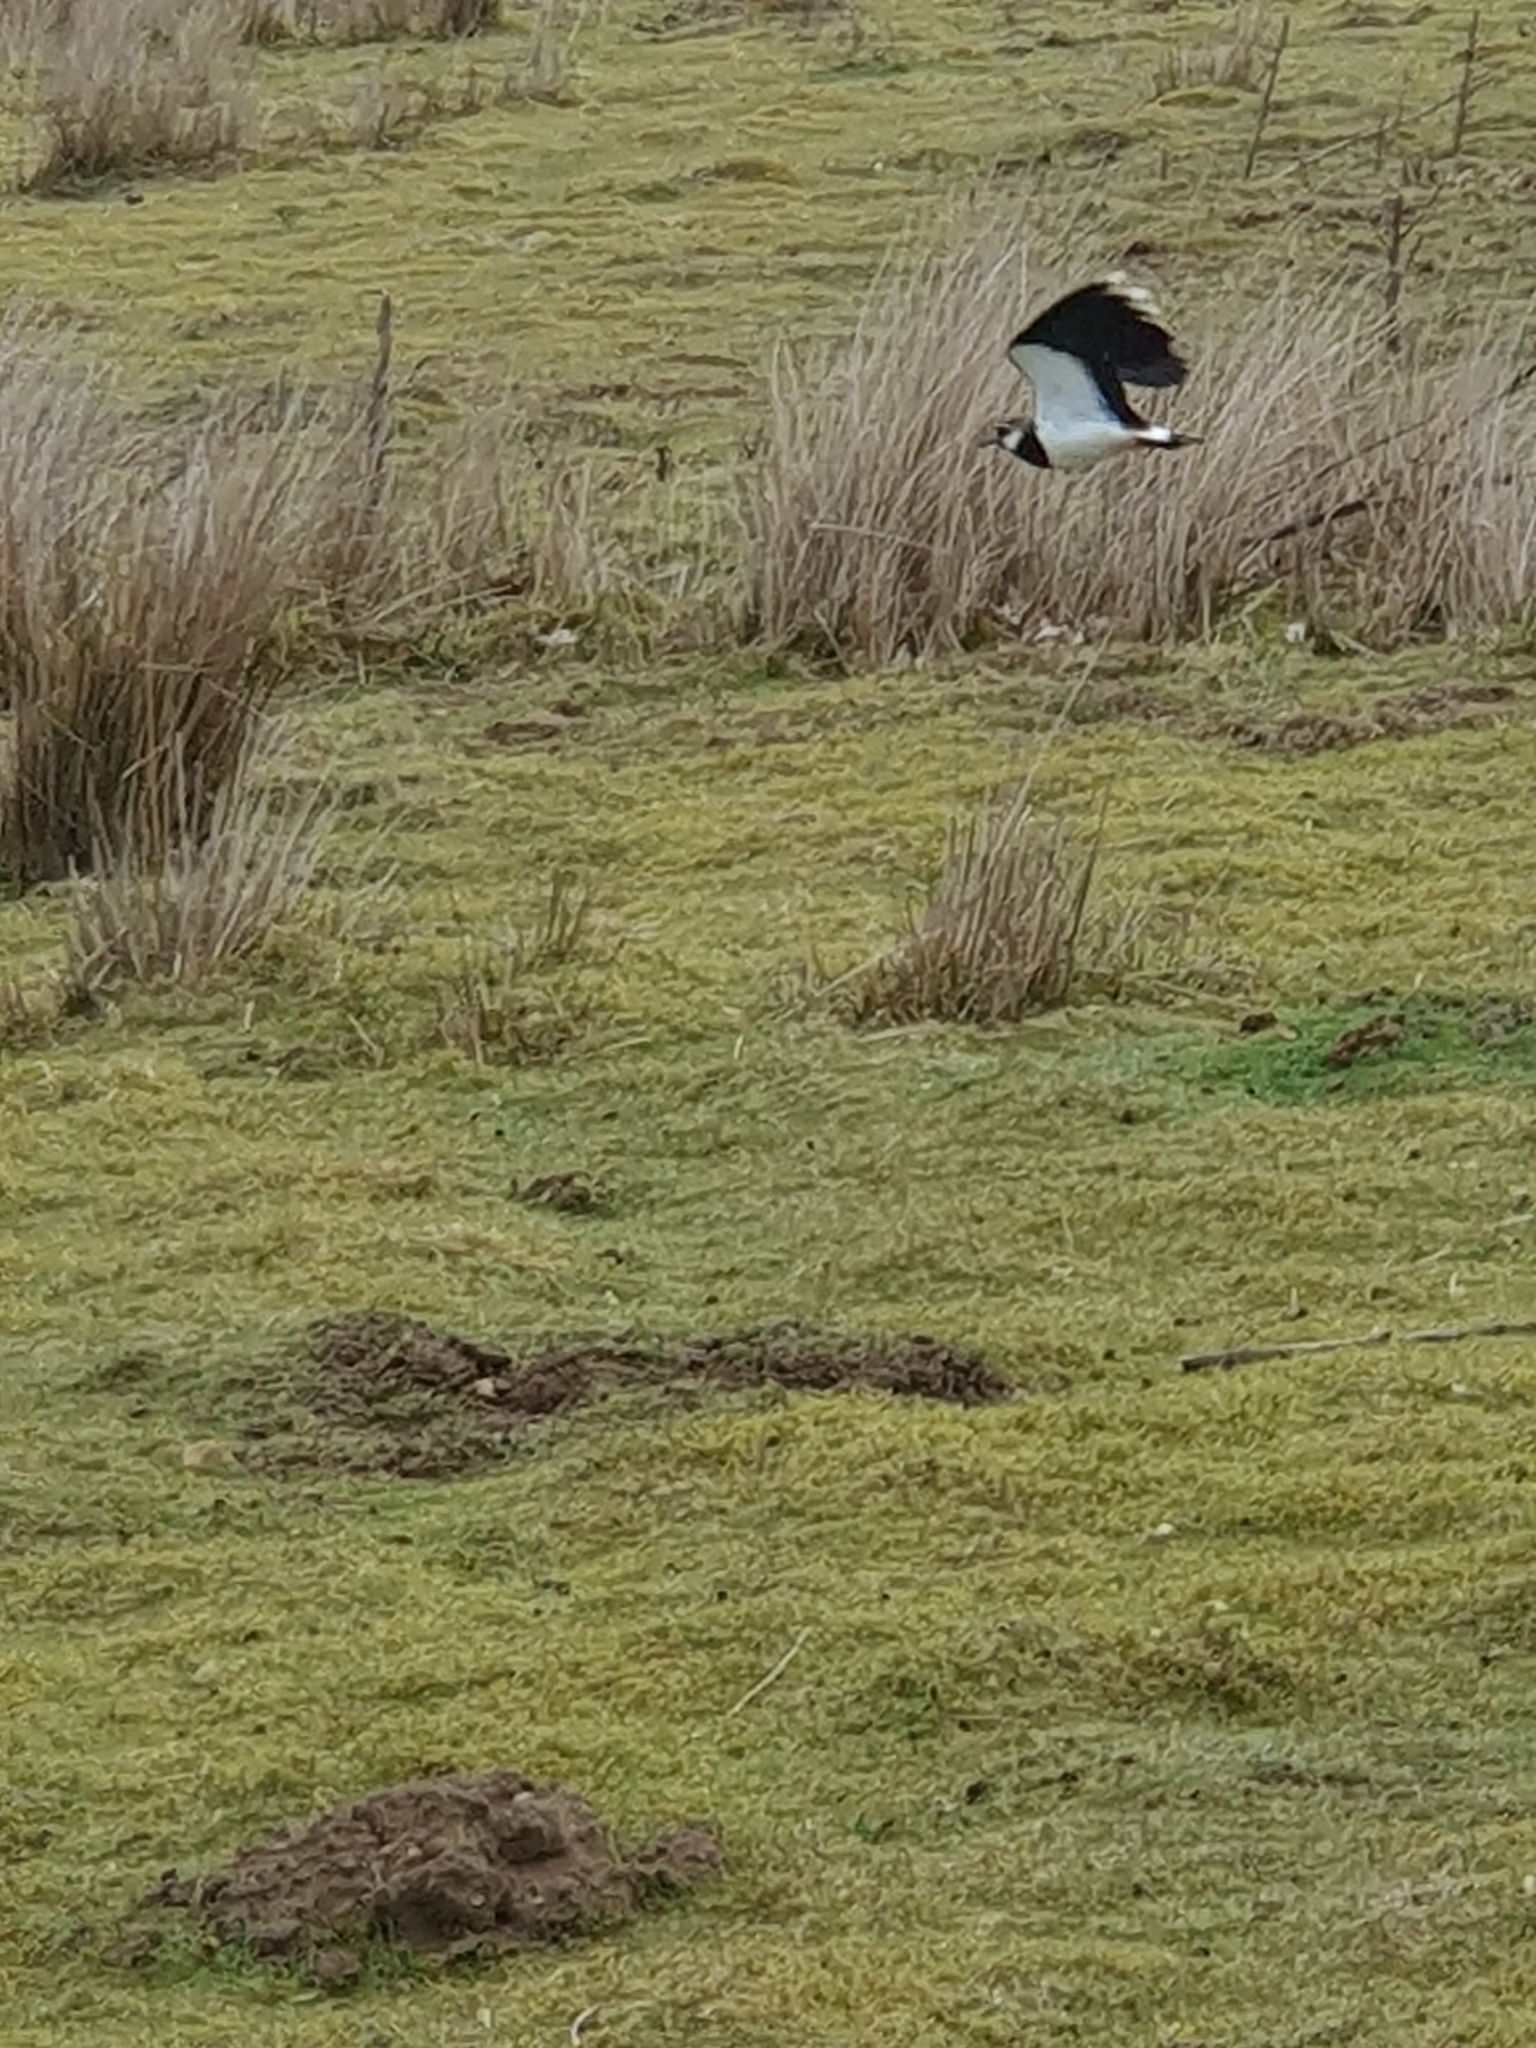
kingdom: Animalia
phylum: Chordata
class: Aves
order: Charadriiformes
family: Charadriidae
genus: Vanellus
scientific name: Vanellus vanellus
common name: Northern lapwing
